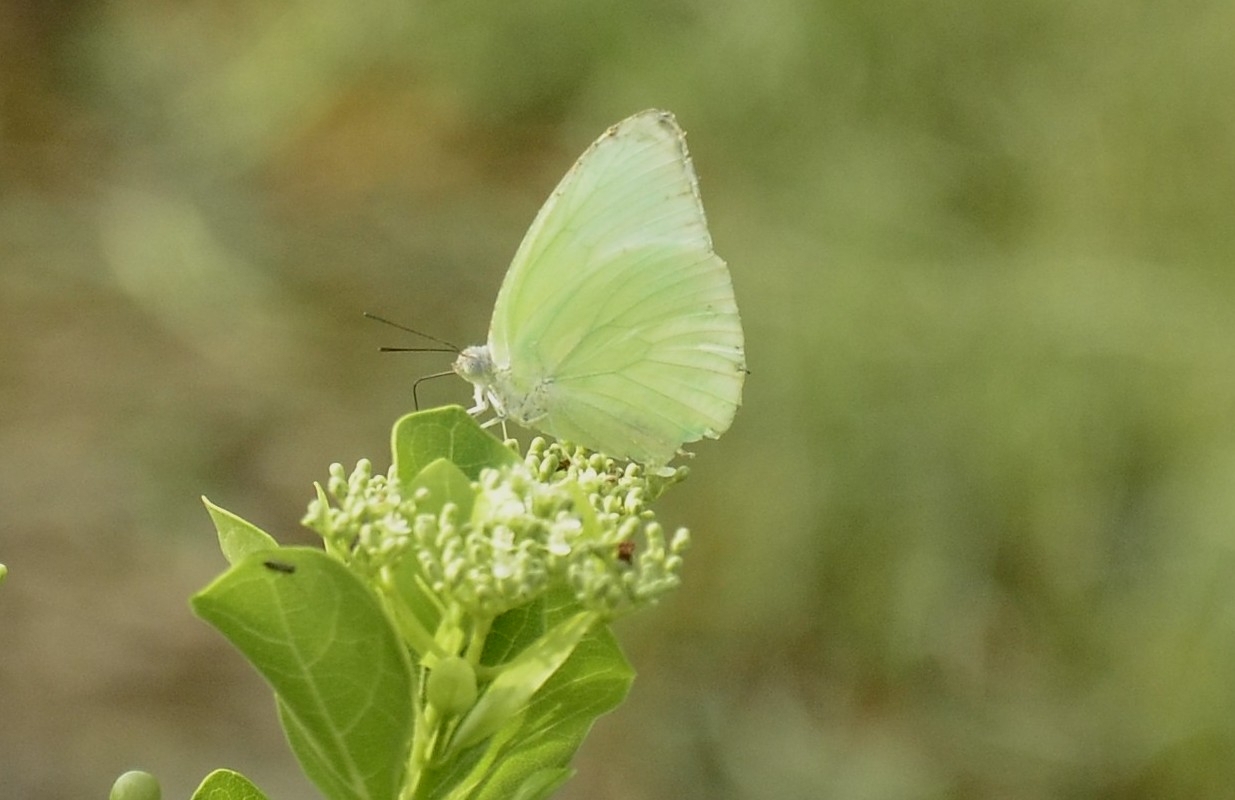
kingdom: Animalia
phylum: Arthropoda
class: Insecta
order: Lepidoptera
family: Pieridae
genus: Catopsilia
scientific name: Catopsilia pomona
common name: Common emigrant
